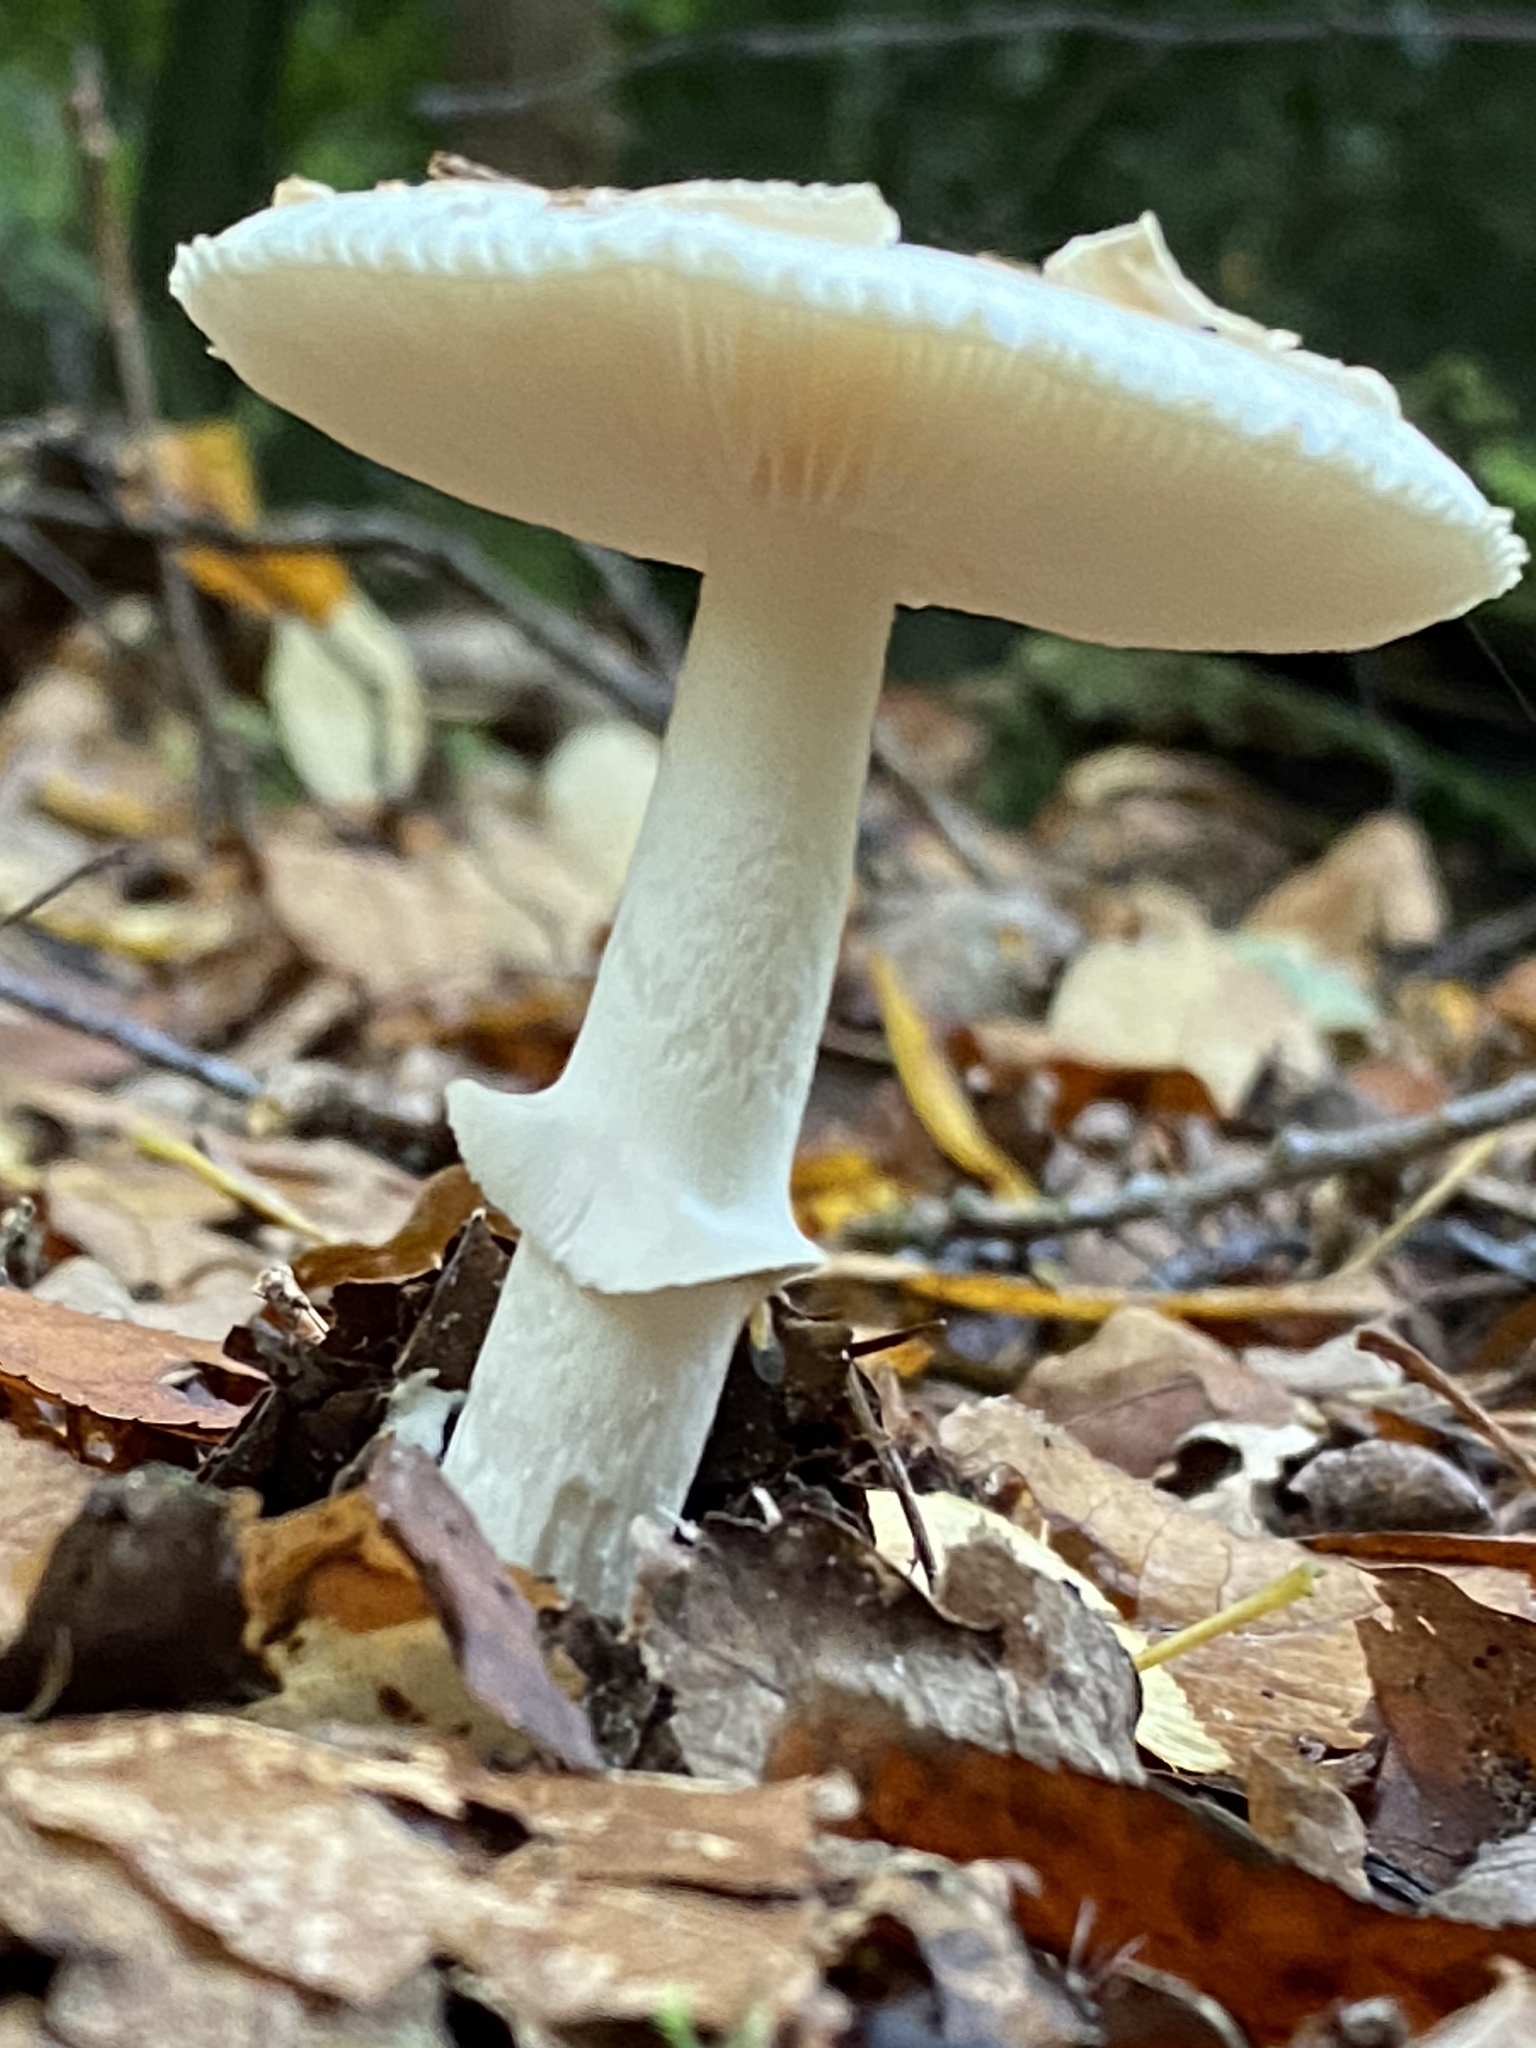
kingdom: Fungi
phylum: Basidiomycota
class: Agaricomycetes
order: Agaricales
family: Amanitaceae
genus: Amanita
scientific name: Amanita citrina
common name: False death-cap
